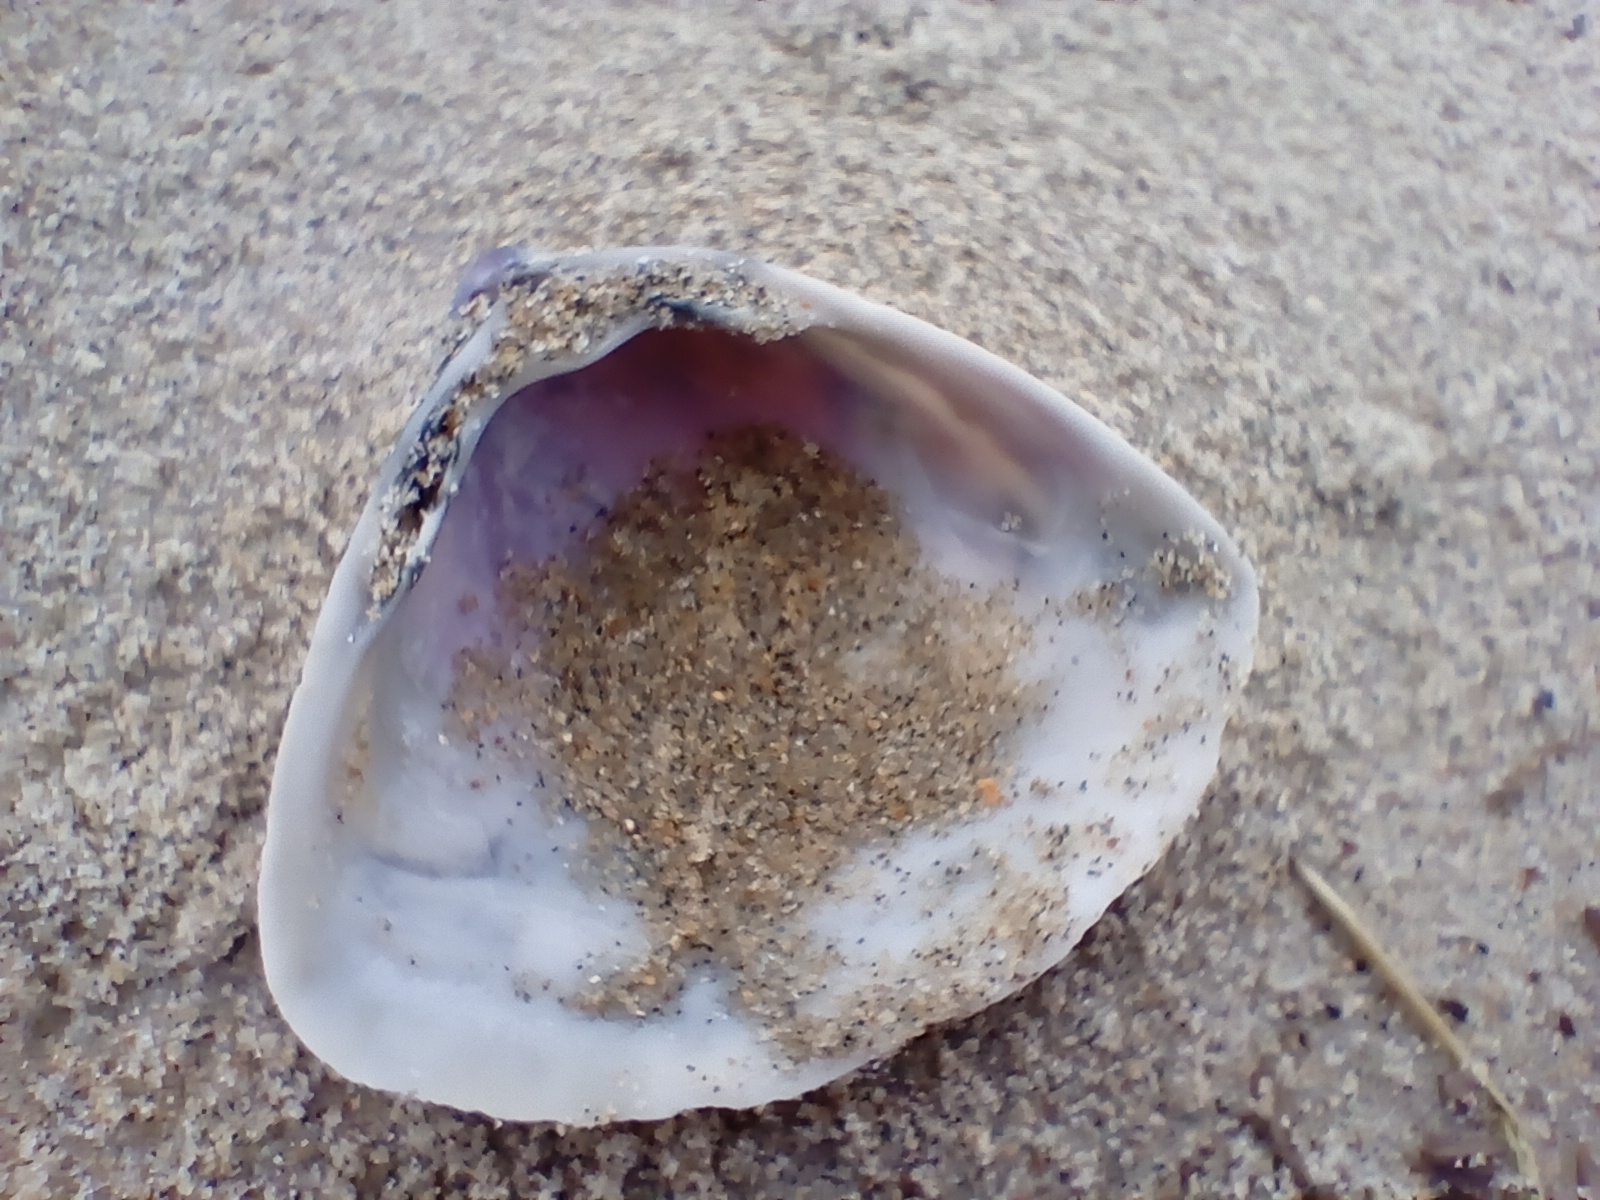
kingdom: Animalia
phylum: Mollusca
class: Bivalvia
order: Venerida
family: Mactridae
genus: Crassula
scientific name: Crassula aequilatera
